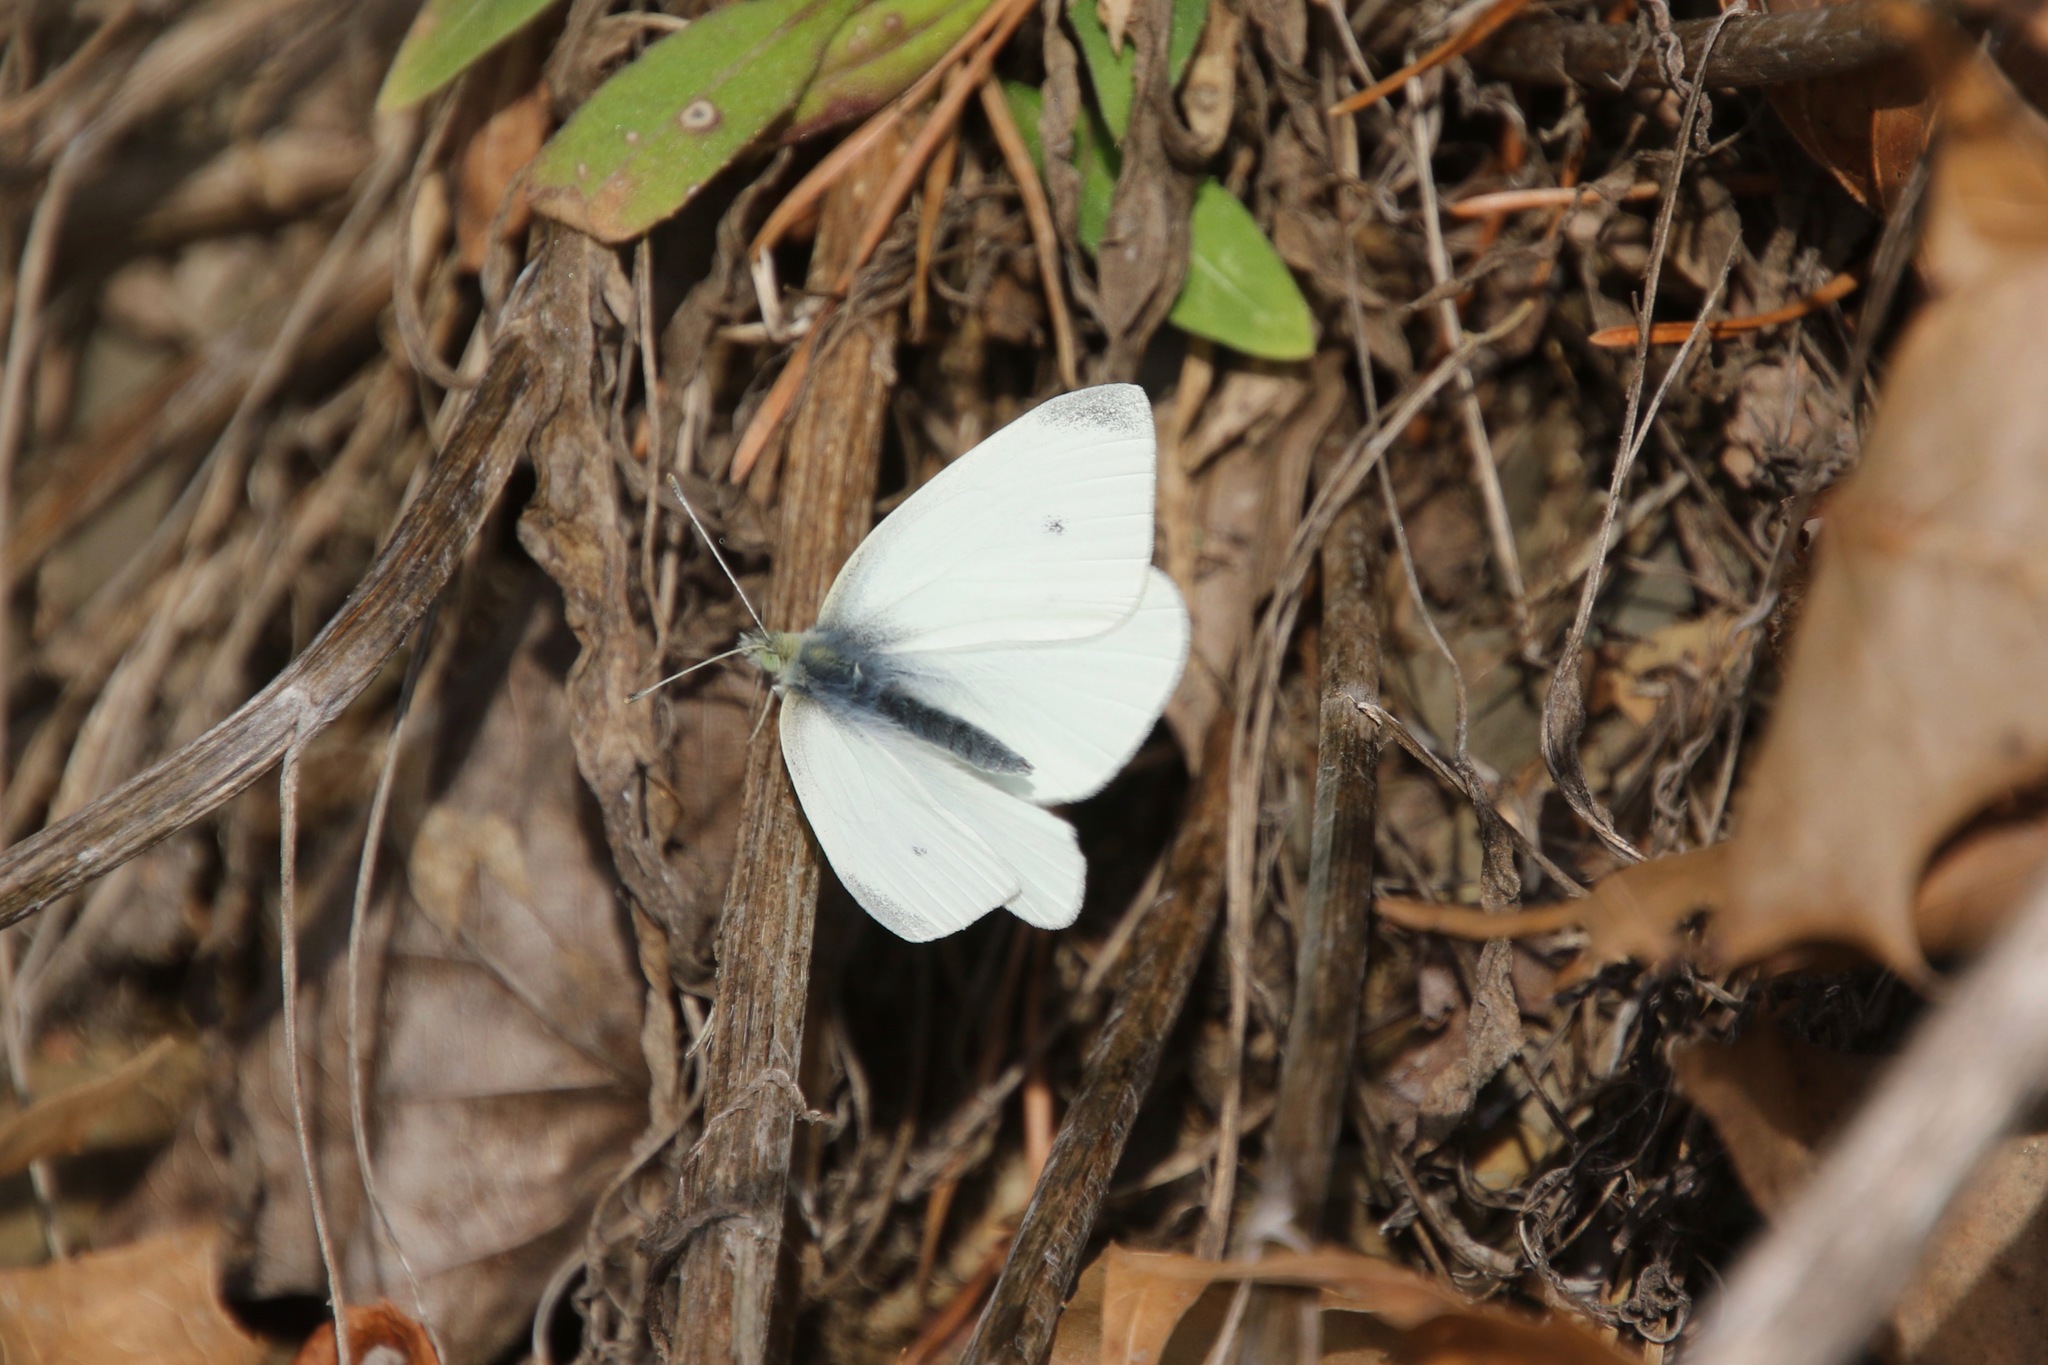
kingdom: Animalia
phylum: Arthropoda
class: Insecta
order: Lepidoptera
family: Pieridae
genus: Pieris
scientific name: Pieris rapae
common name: Small white
